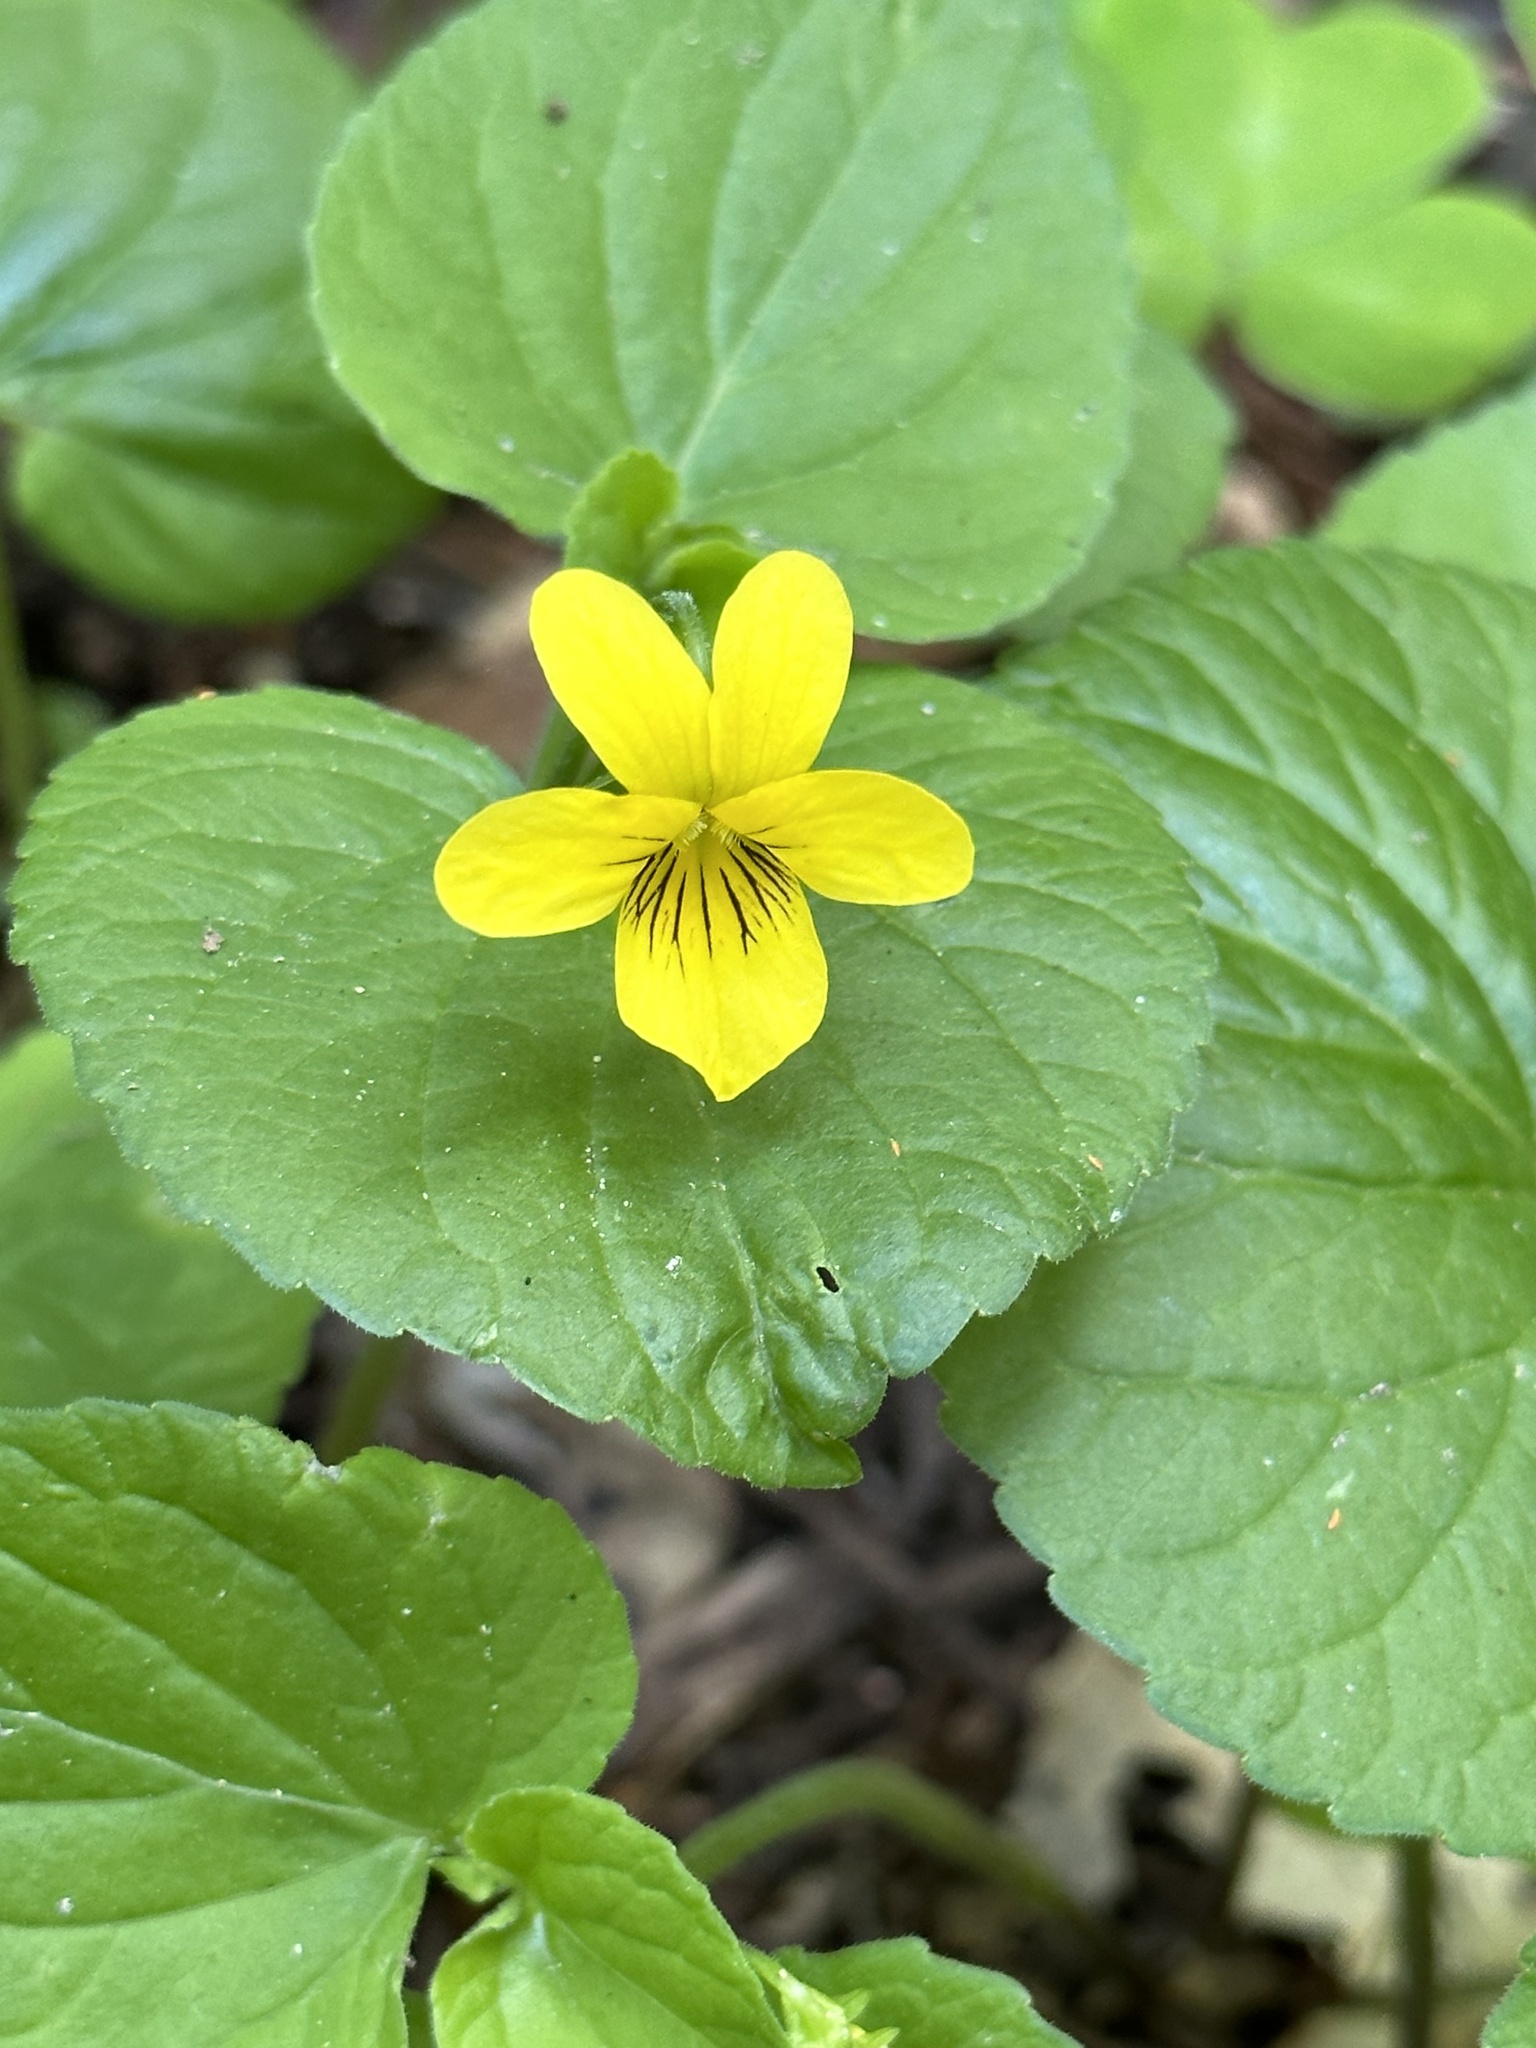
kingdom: Plantae
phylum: Tracheophyta
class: Magnoliopsida
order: Malpighiales
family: Violaceae
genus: Viola
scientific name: Viola glabella
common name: Stream violet
